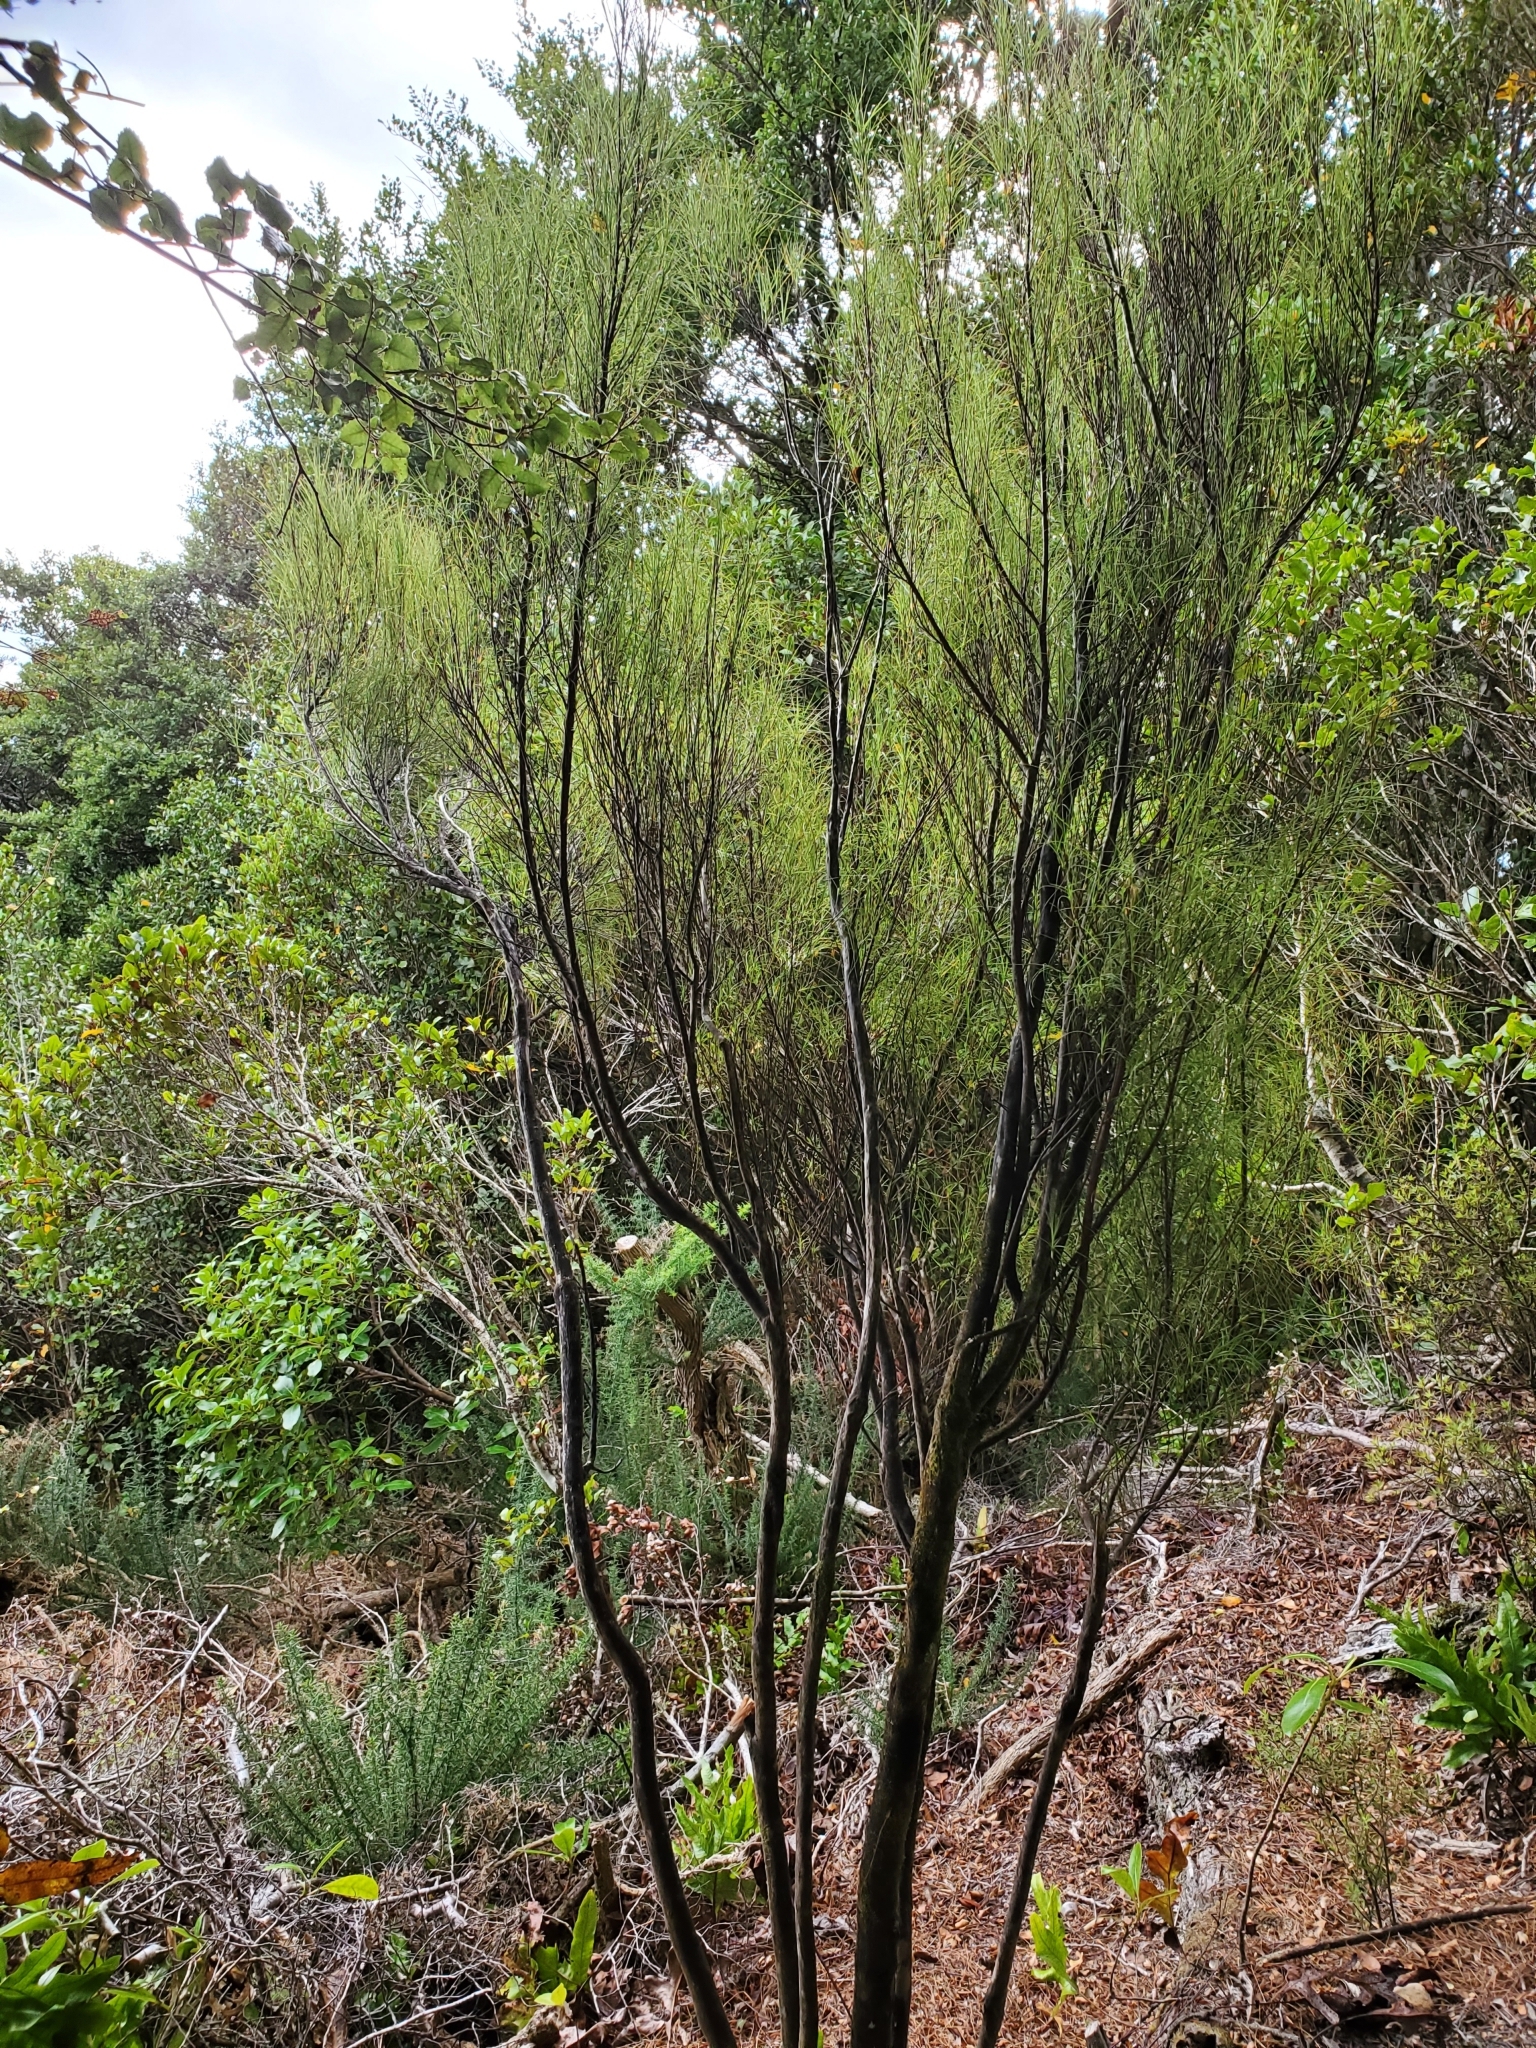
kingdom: Plantae
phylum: Tracheophyta
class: Magnoliopsida
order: Ericales
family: Ericaceae
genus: Dracophyllum
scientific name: Dracophyllum filifolium
